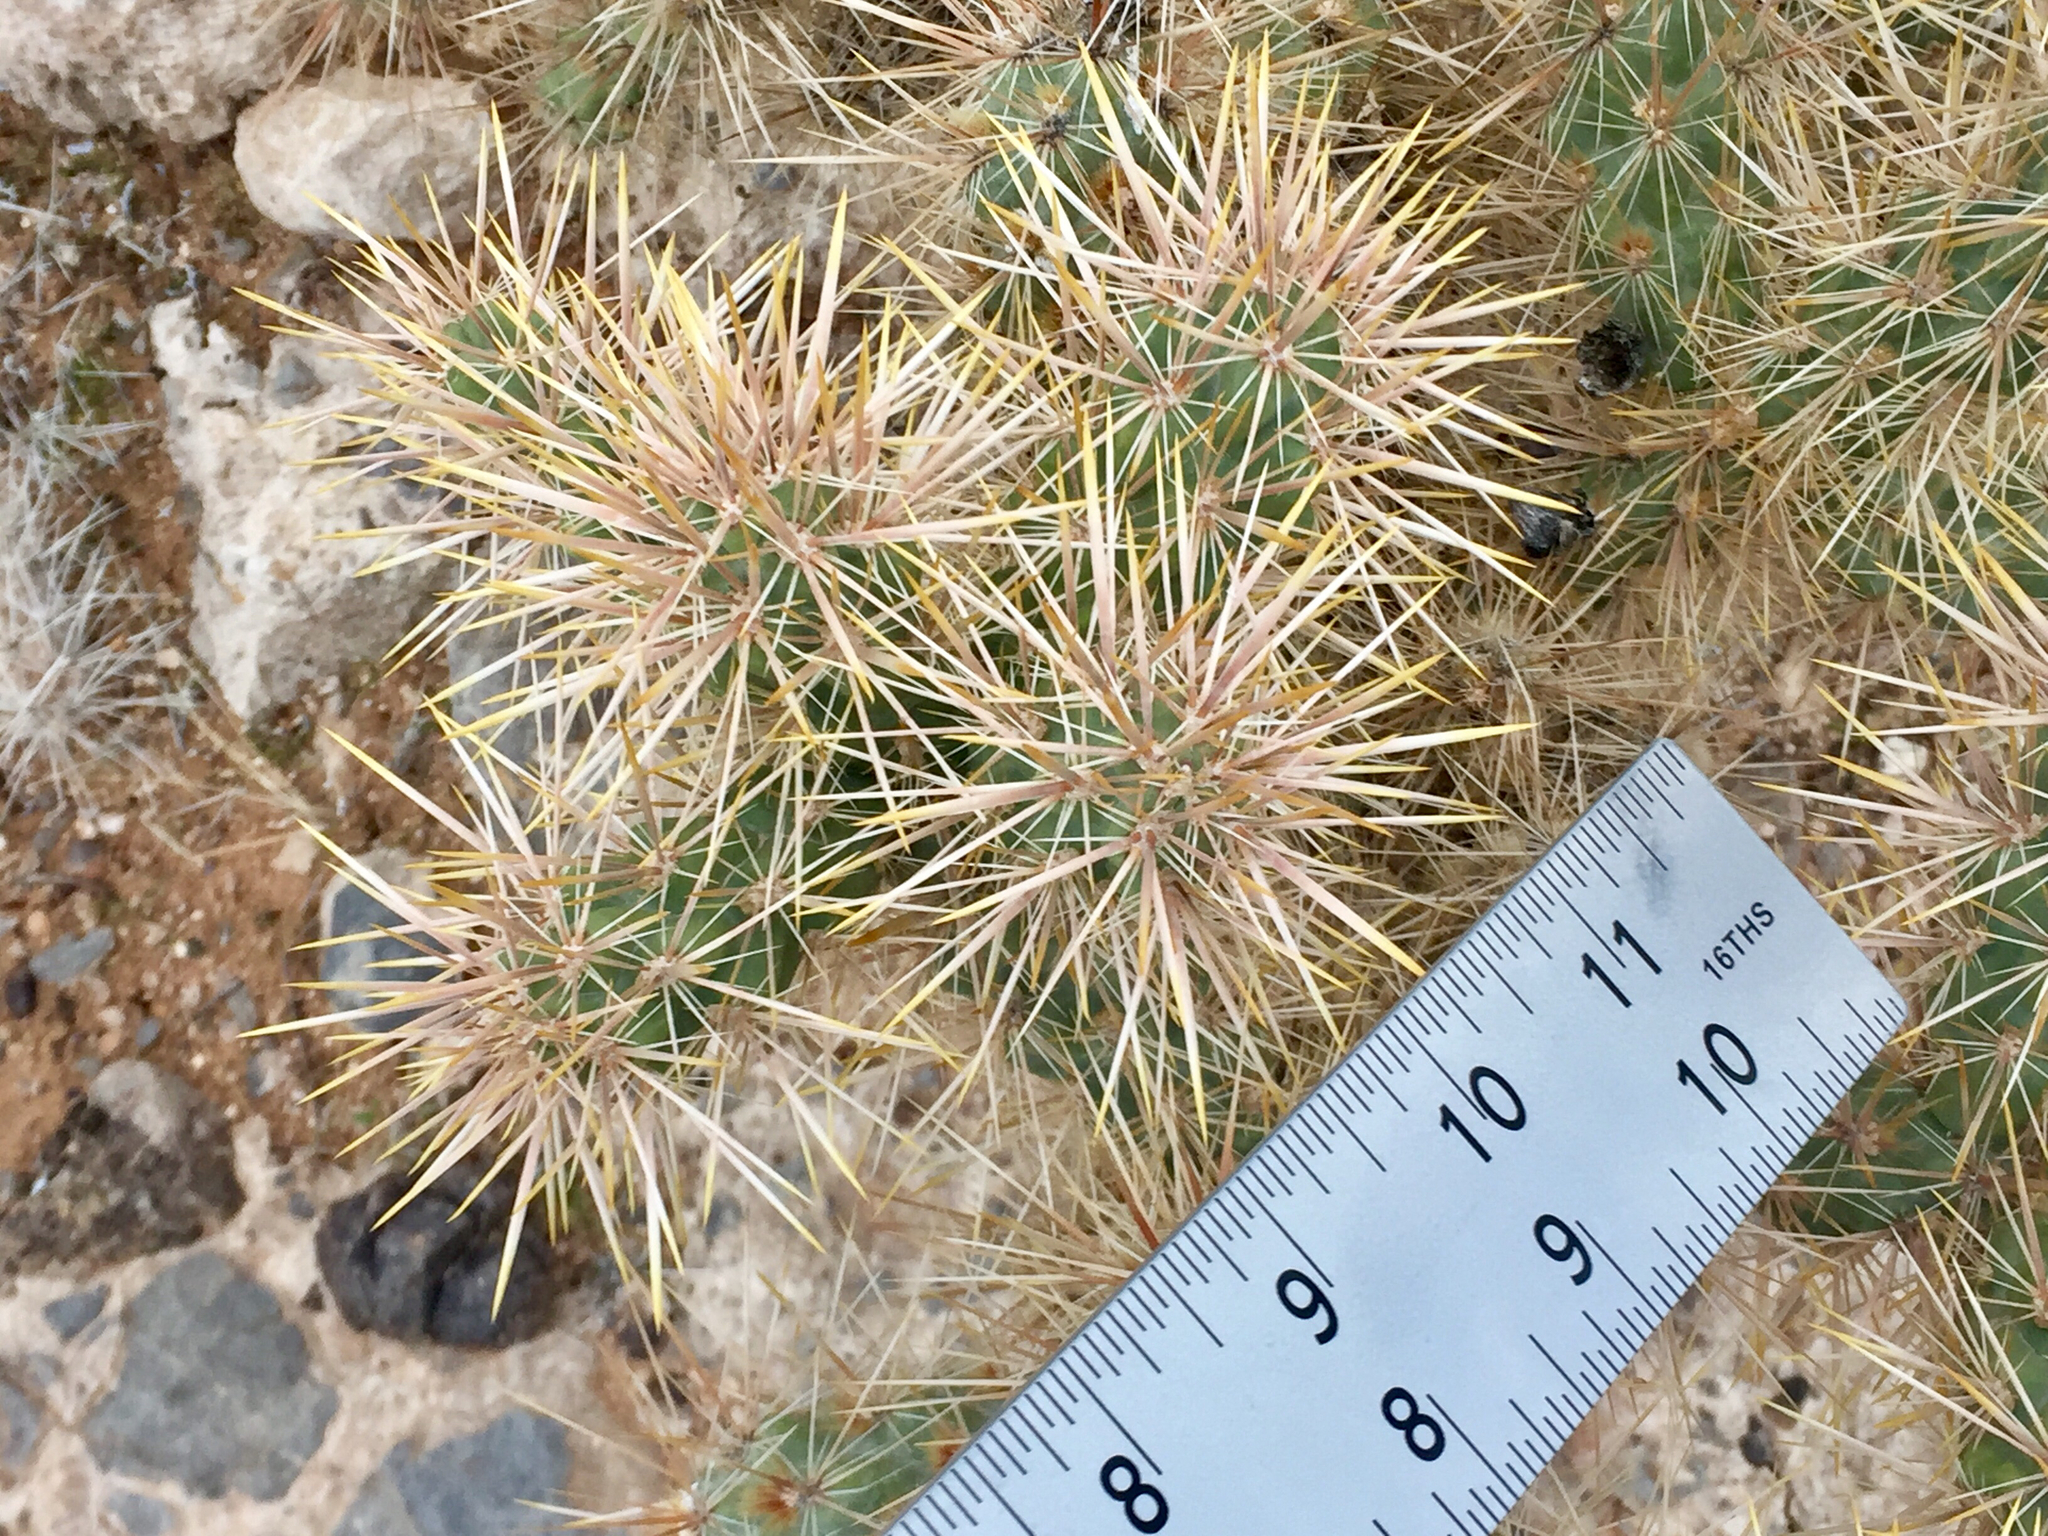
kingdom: Plantae
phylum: Tracheophyta
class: Magnoliopsida
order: Caryophyllales
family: Cactaceae
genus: Cylindropuntia
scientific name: Cylindropuntia echinocarpa
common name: Ground cholla
